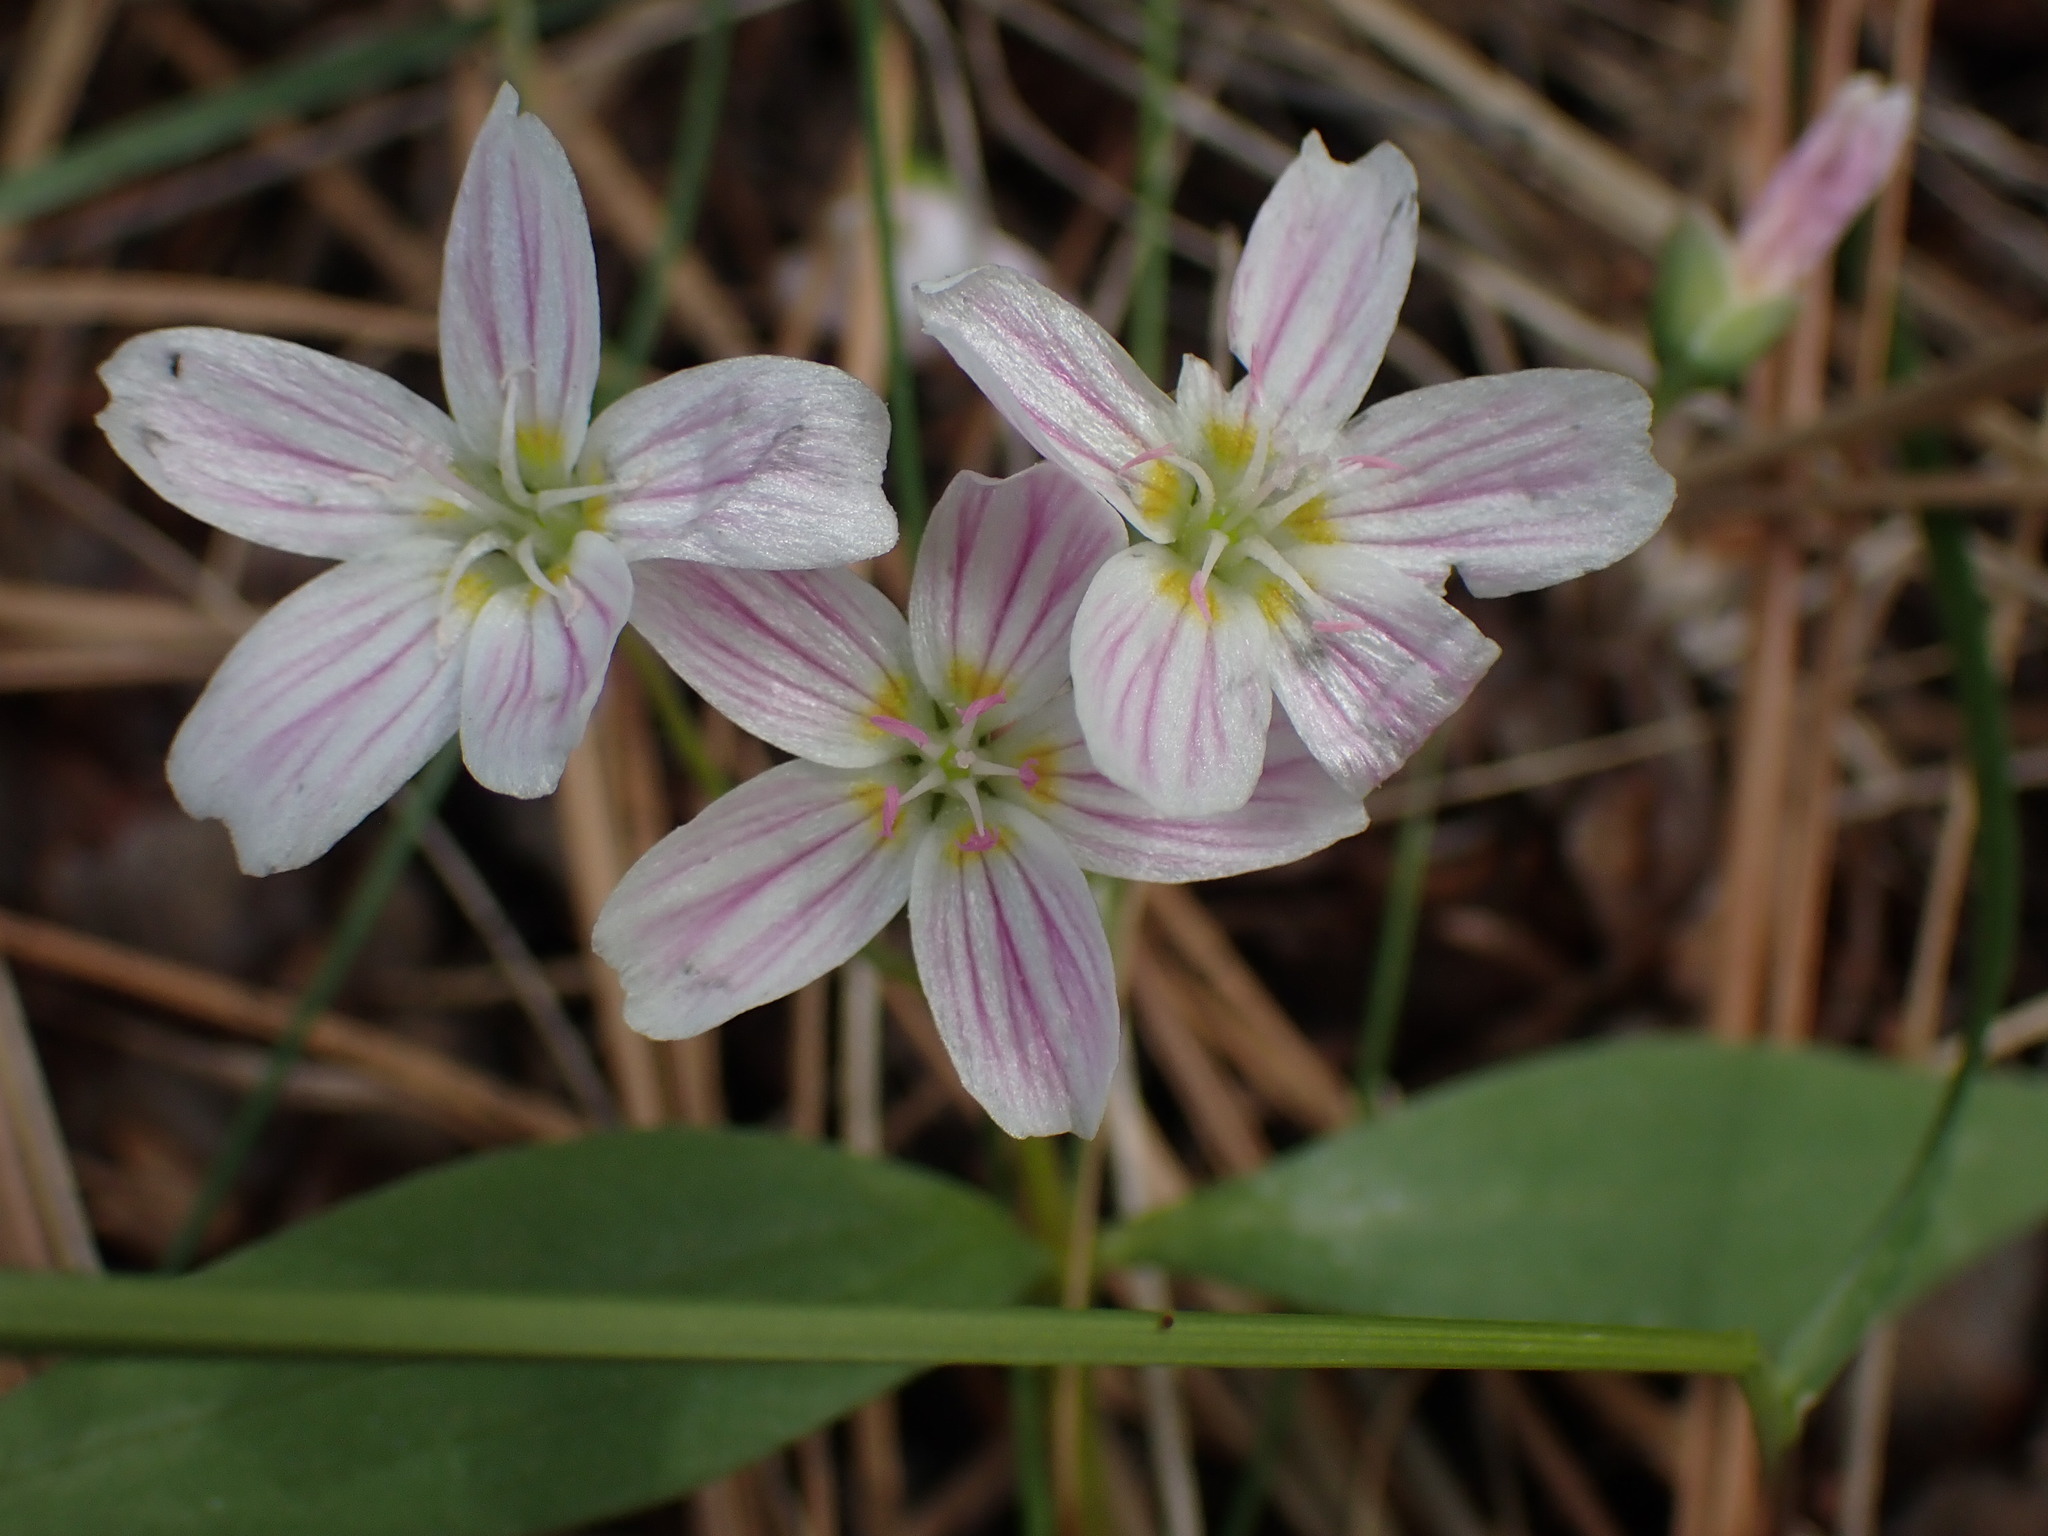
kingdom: Plantae
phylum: Tracheophyta
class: Magnoliopsida
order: Caryophyllales
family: Montiaceae
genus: Claytonia
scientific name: Claytonia lanceolata
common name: Western spring-beauty
